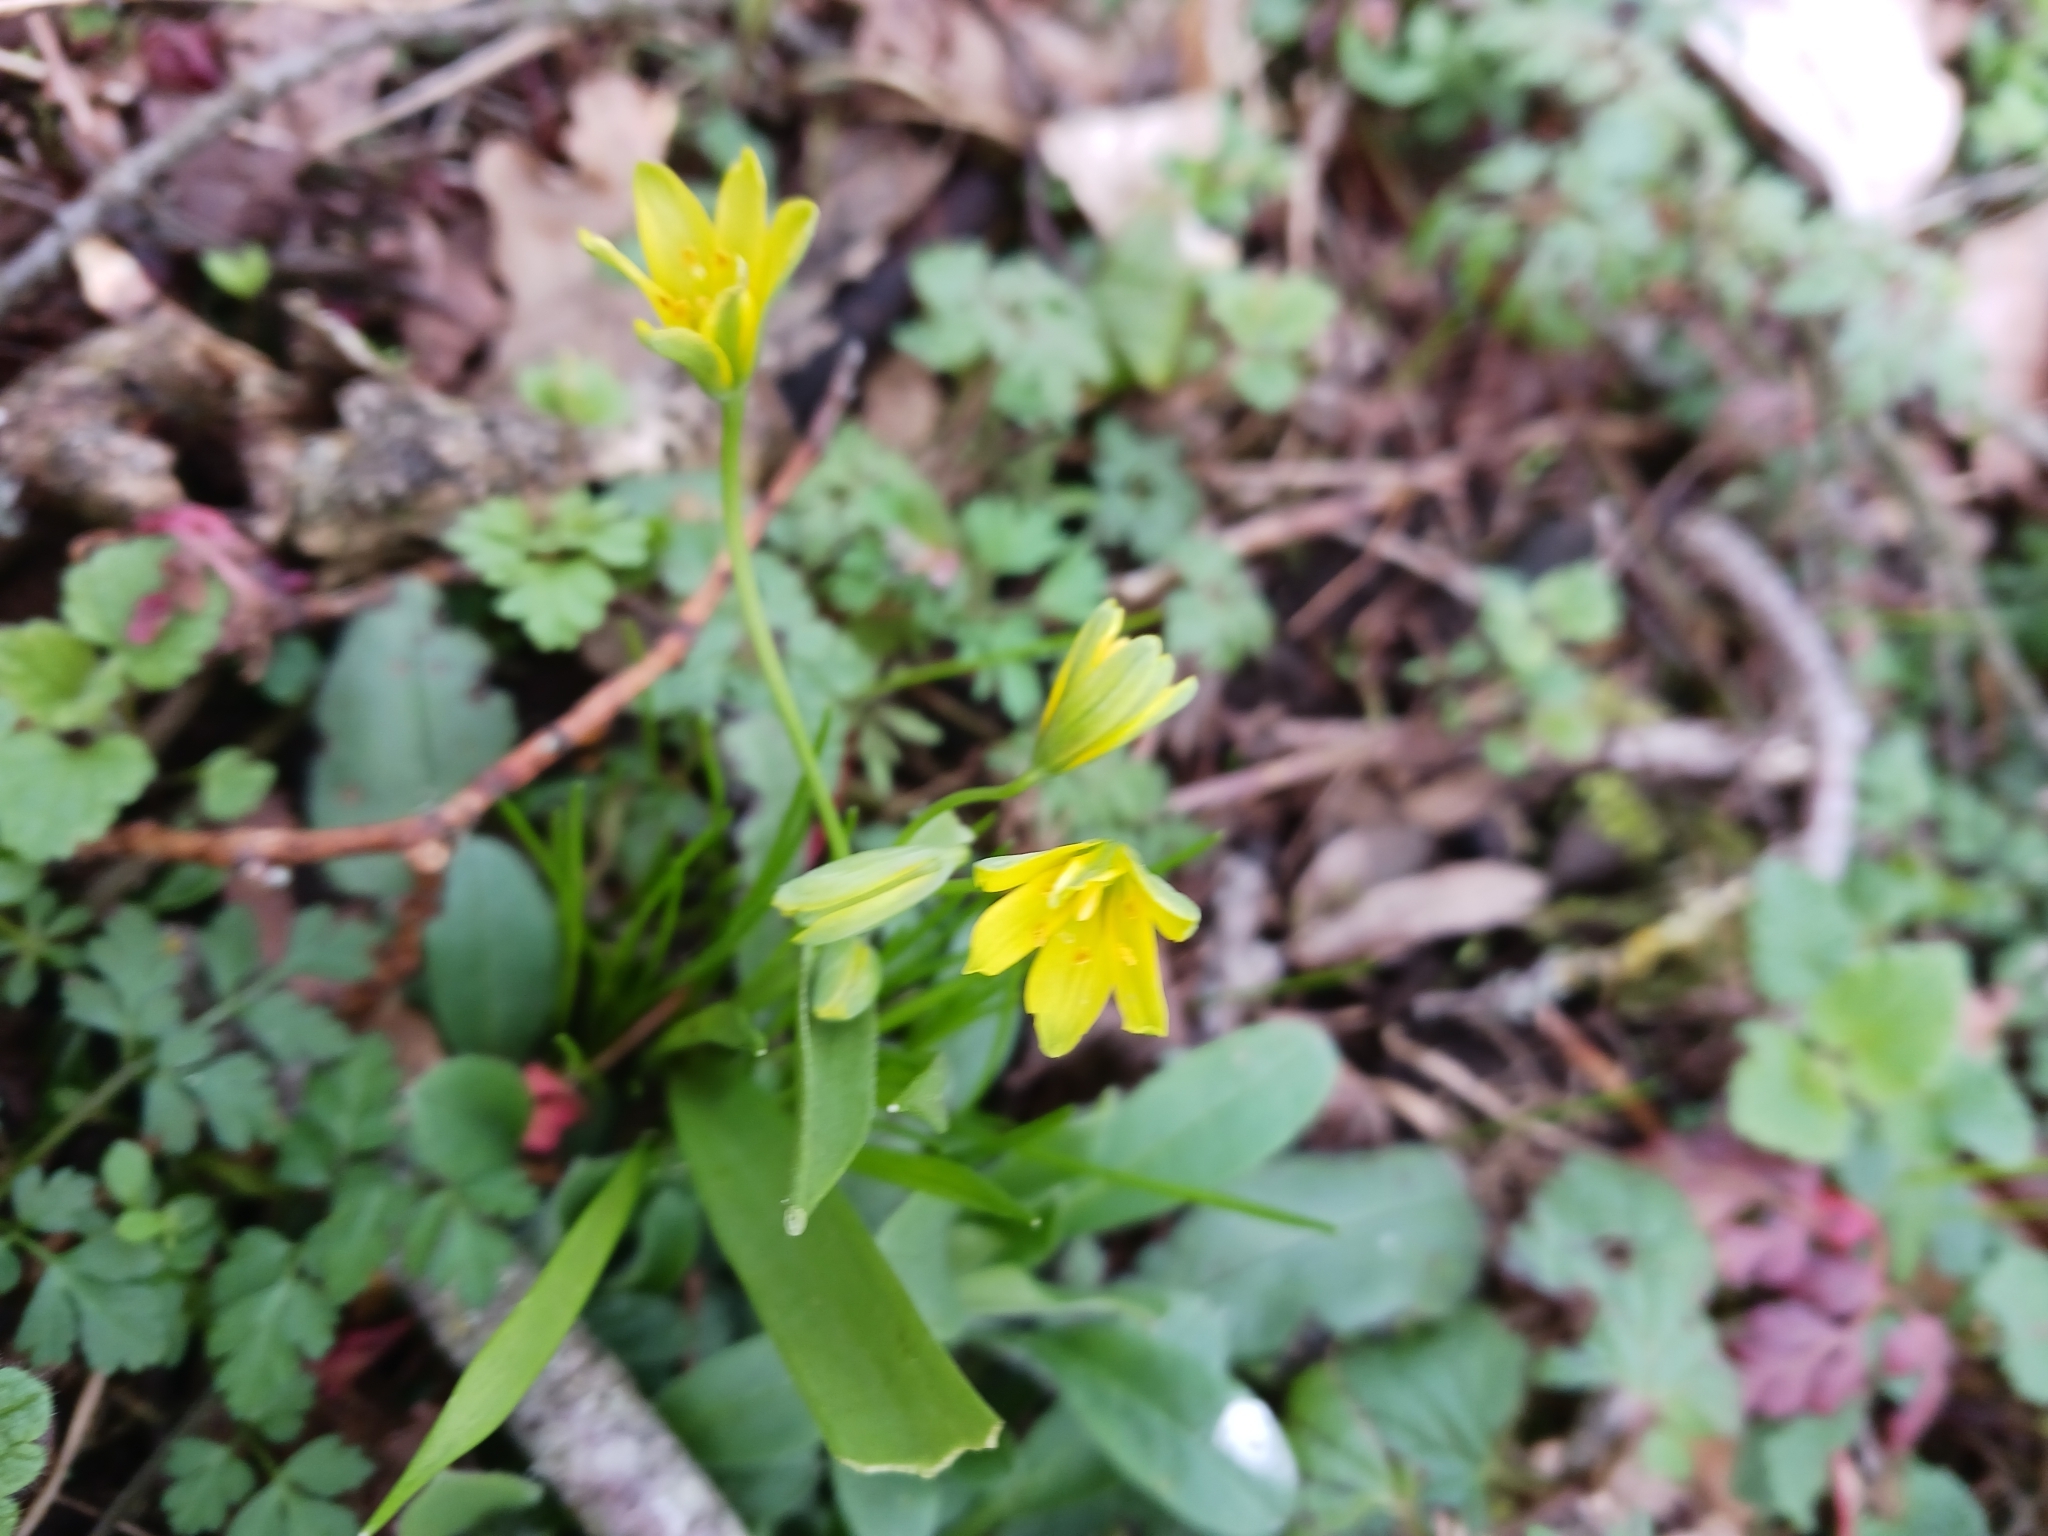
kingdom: Plantae
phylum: Tracheophyta
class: Liliopsida
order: Liliales
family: Liliaceae
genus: Gagea
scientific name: Gagea lutea
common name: Yellow star-of-bethlehem
